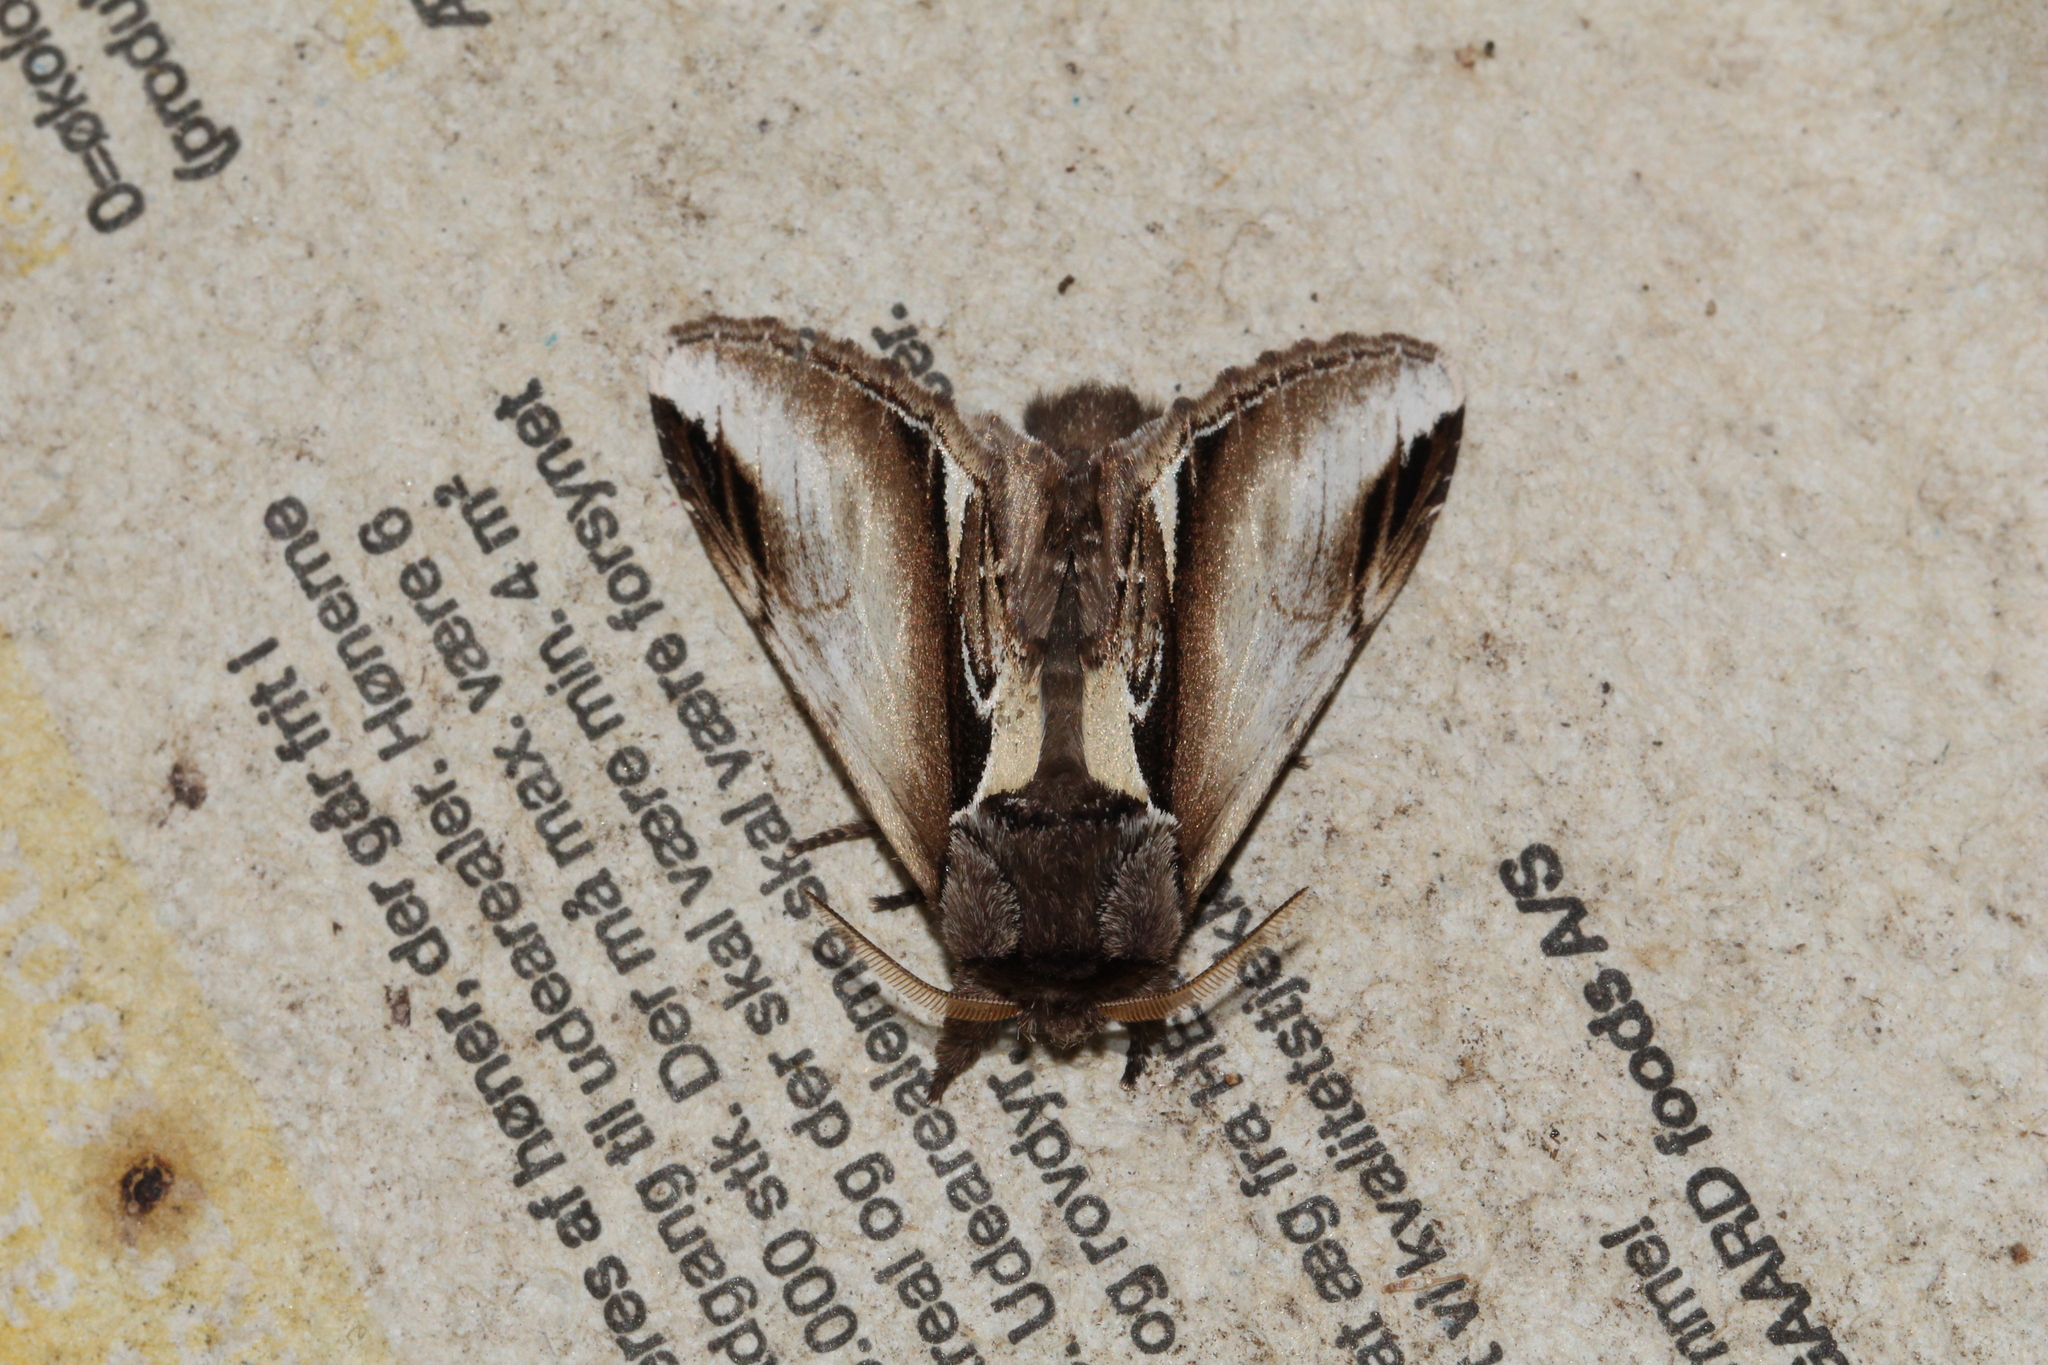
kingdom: Animalia
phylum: Arthropoda
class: Insecta
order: Lepidoptera
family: Notodontidae
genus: Pheosia
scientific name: Pheosia gnoma
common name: Lesser swallow prominent
